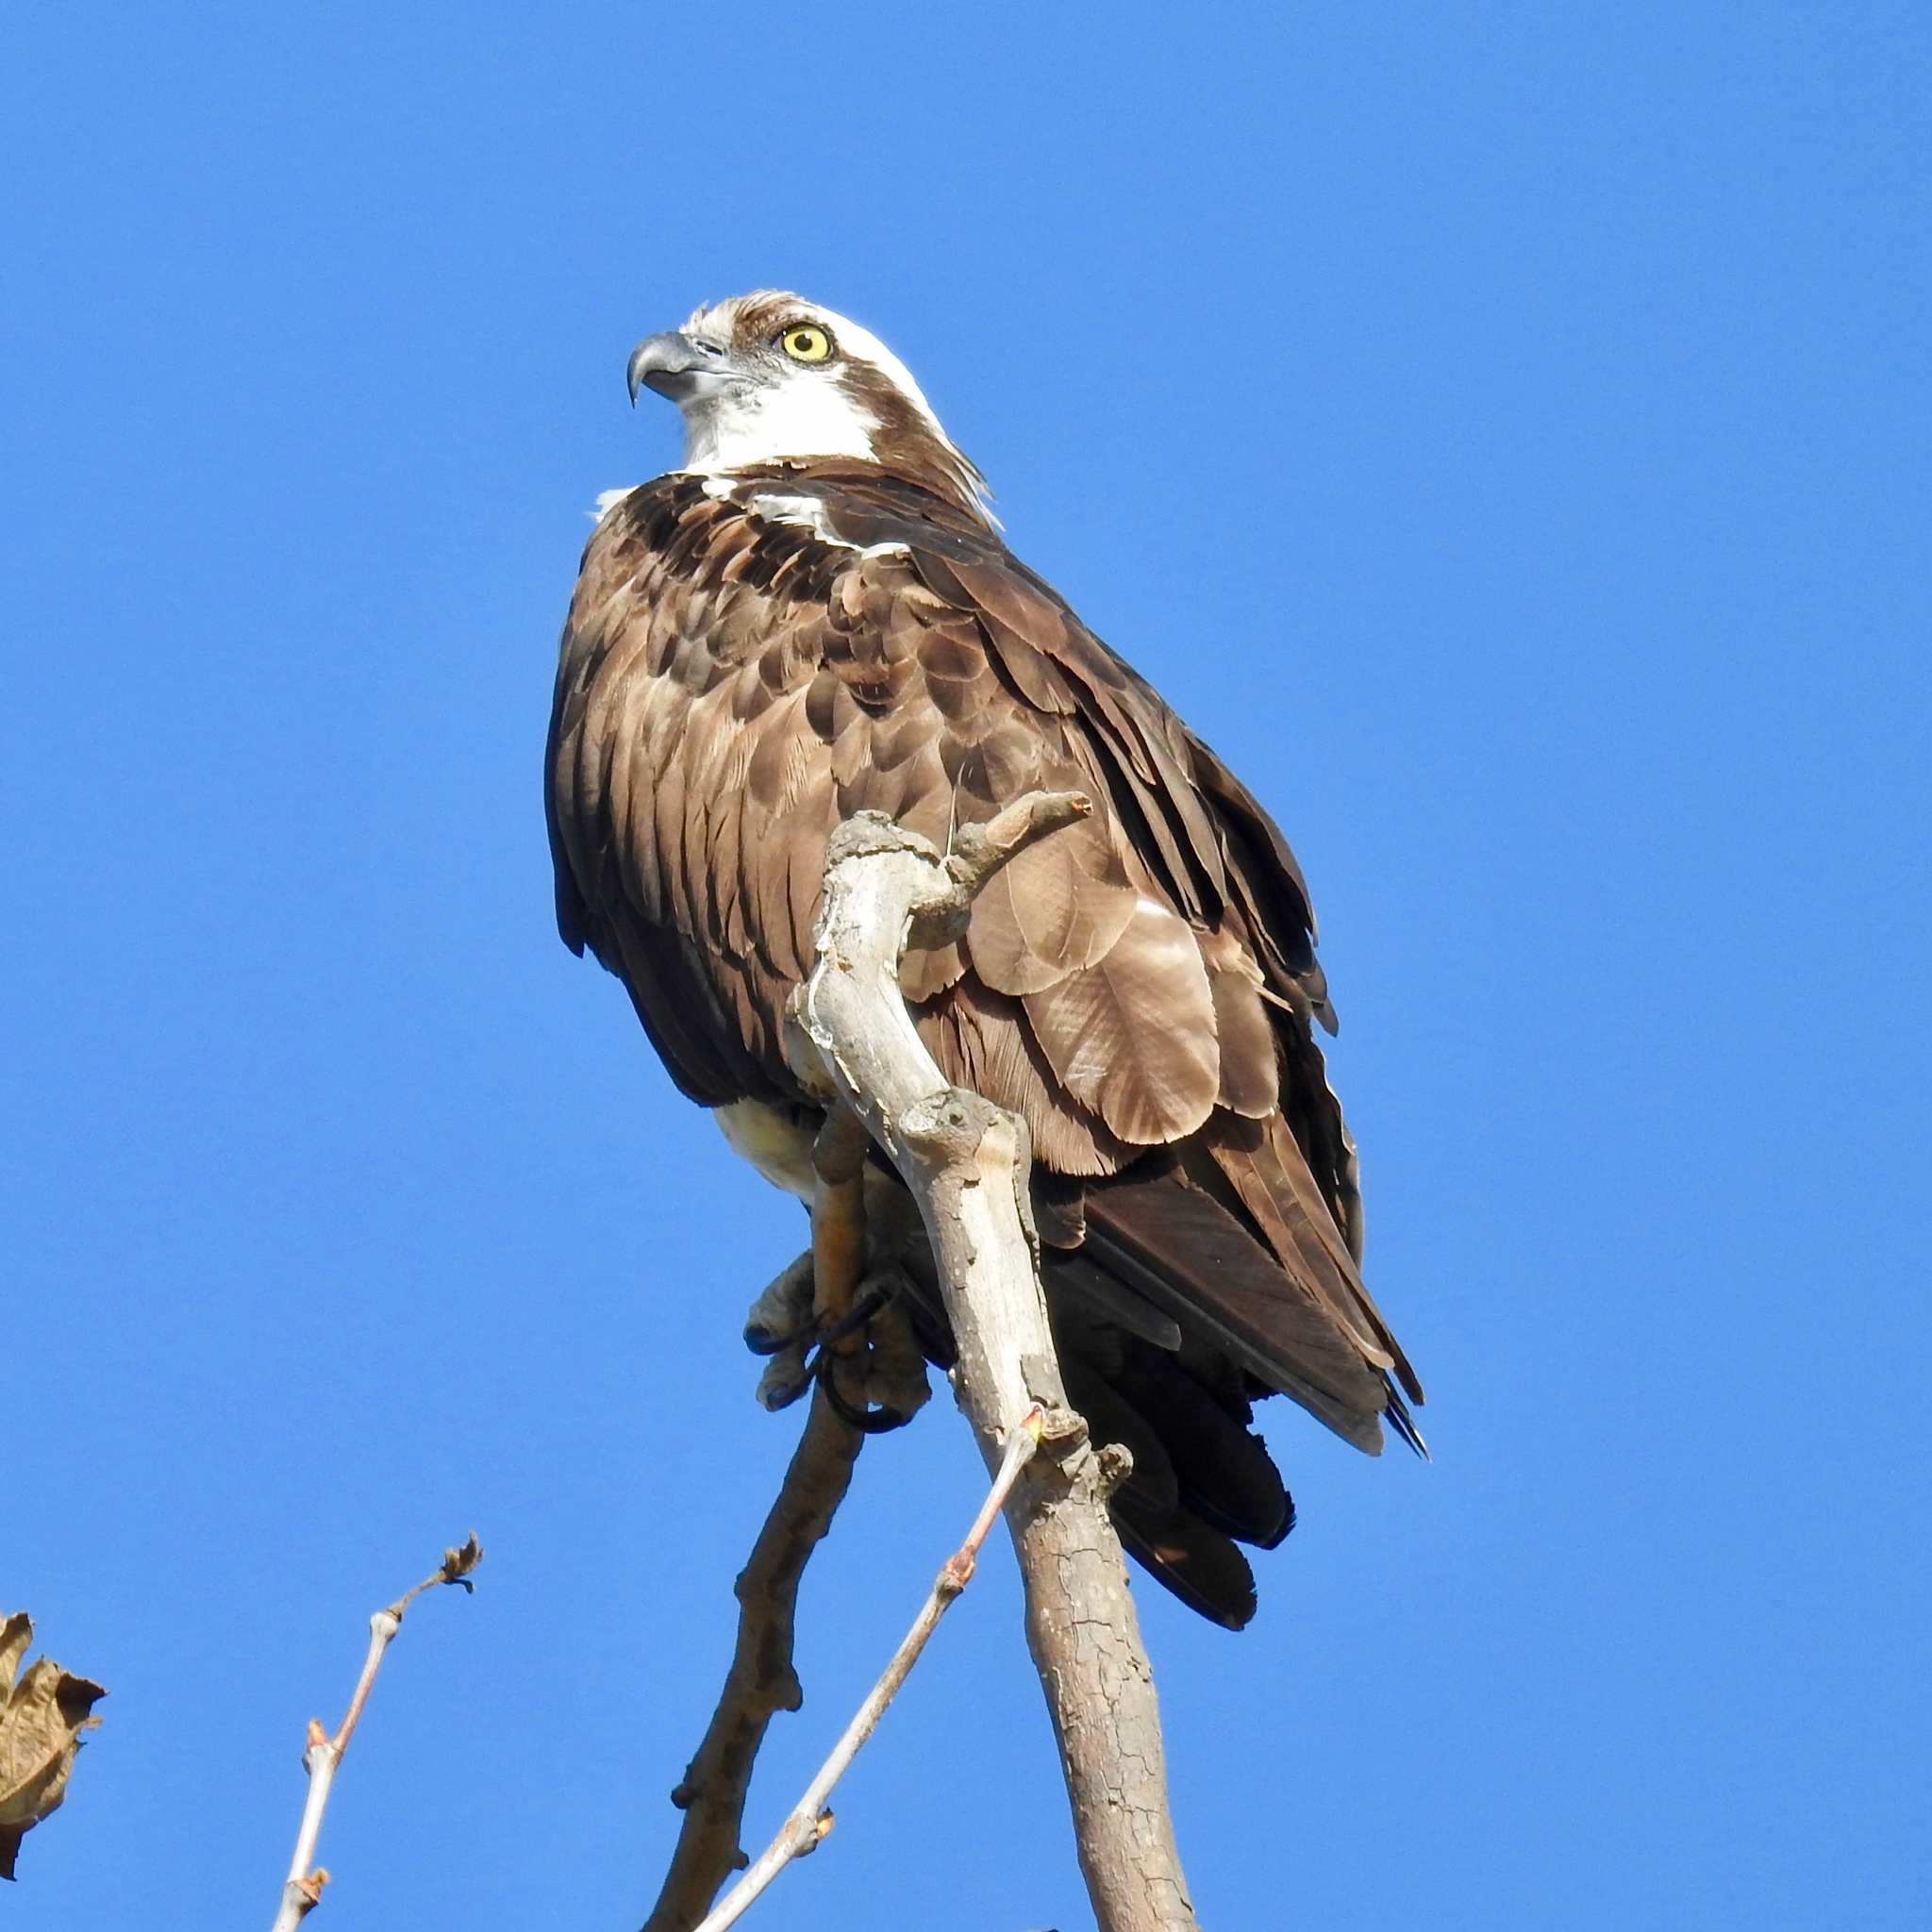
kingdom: Animalia
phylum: Chordata
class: Aves
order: Accipitriformes
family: Pandionidae
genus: Pandion
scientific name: Pandion haliaetus
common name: Osprey
